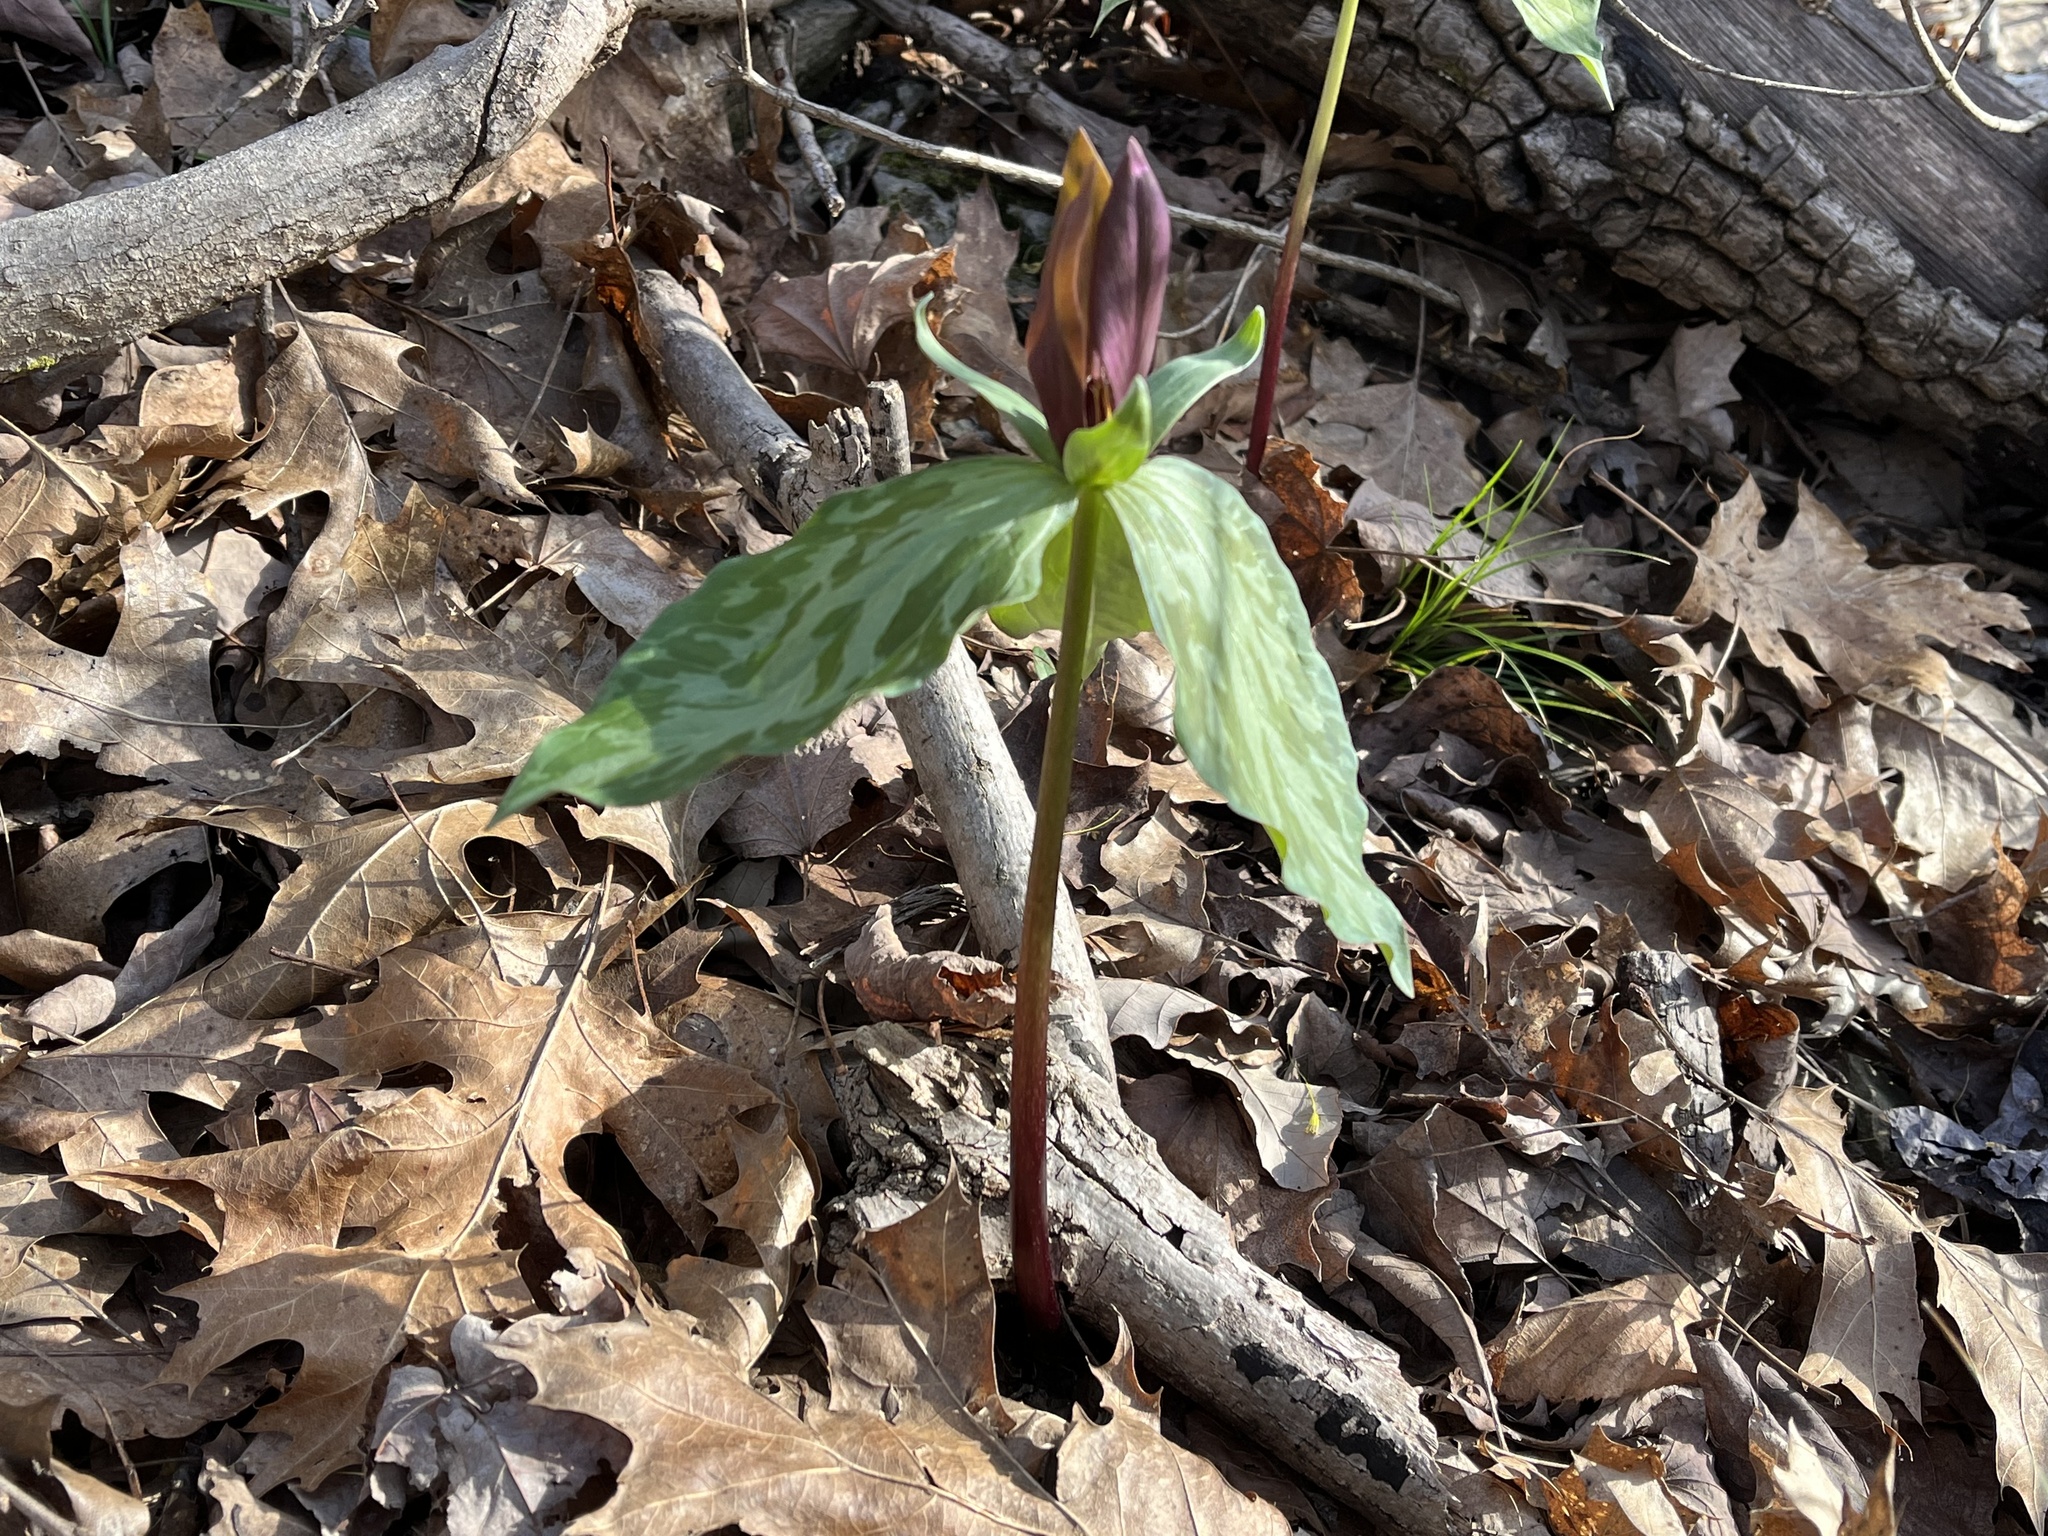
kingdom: Plantae
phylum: Tracheophyta
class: Liliopsida
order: Liliales
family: Melanthiaceae
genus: Trillium
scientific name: Trillium cuneatum
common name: Cuneate trillium
